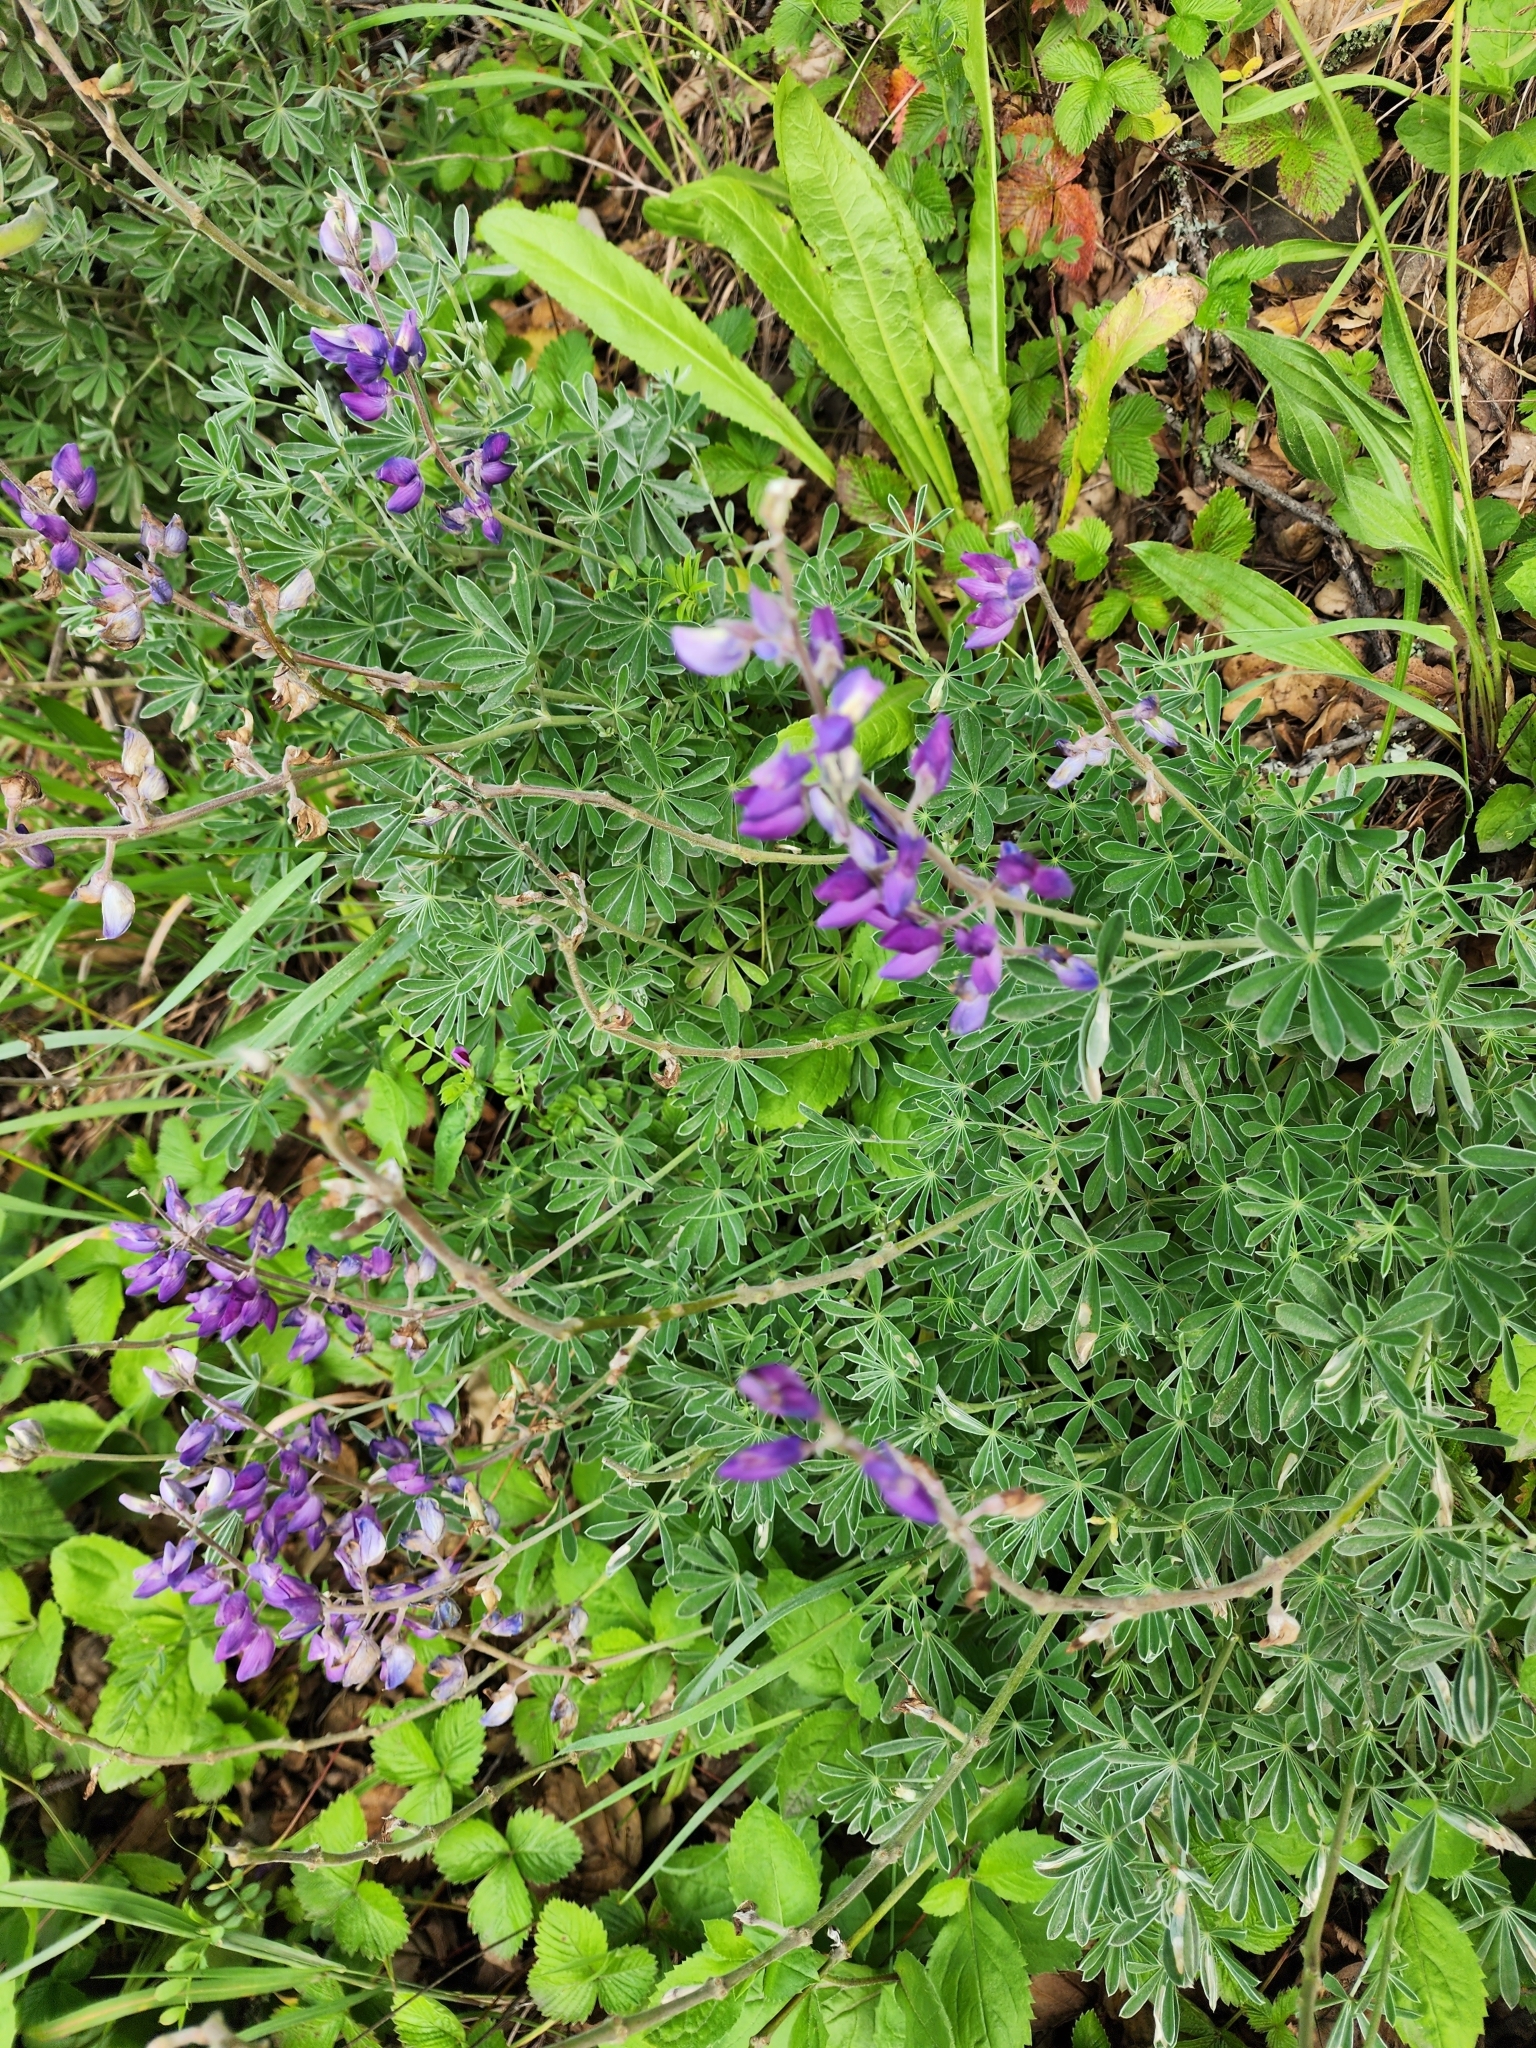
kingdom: Plantae
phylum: Tracheophyta
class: Magnoliopsida
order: Fabales
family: Fabaceae
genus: Lupinus
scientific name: Lupinus albifrons
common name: Foothill lupine
